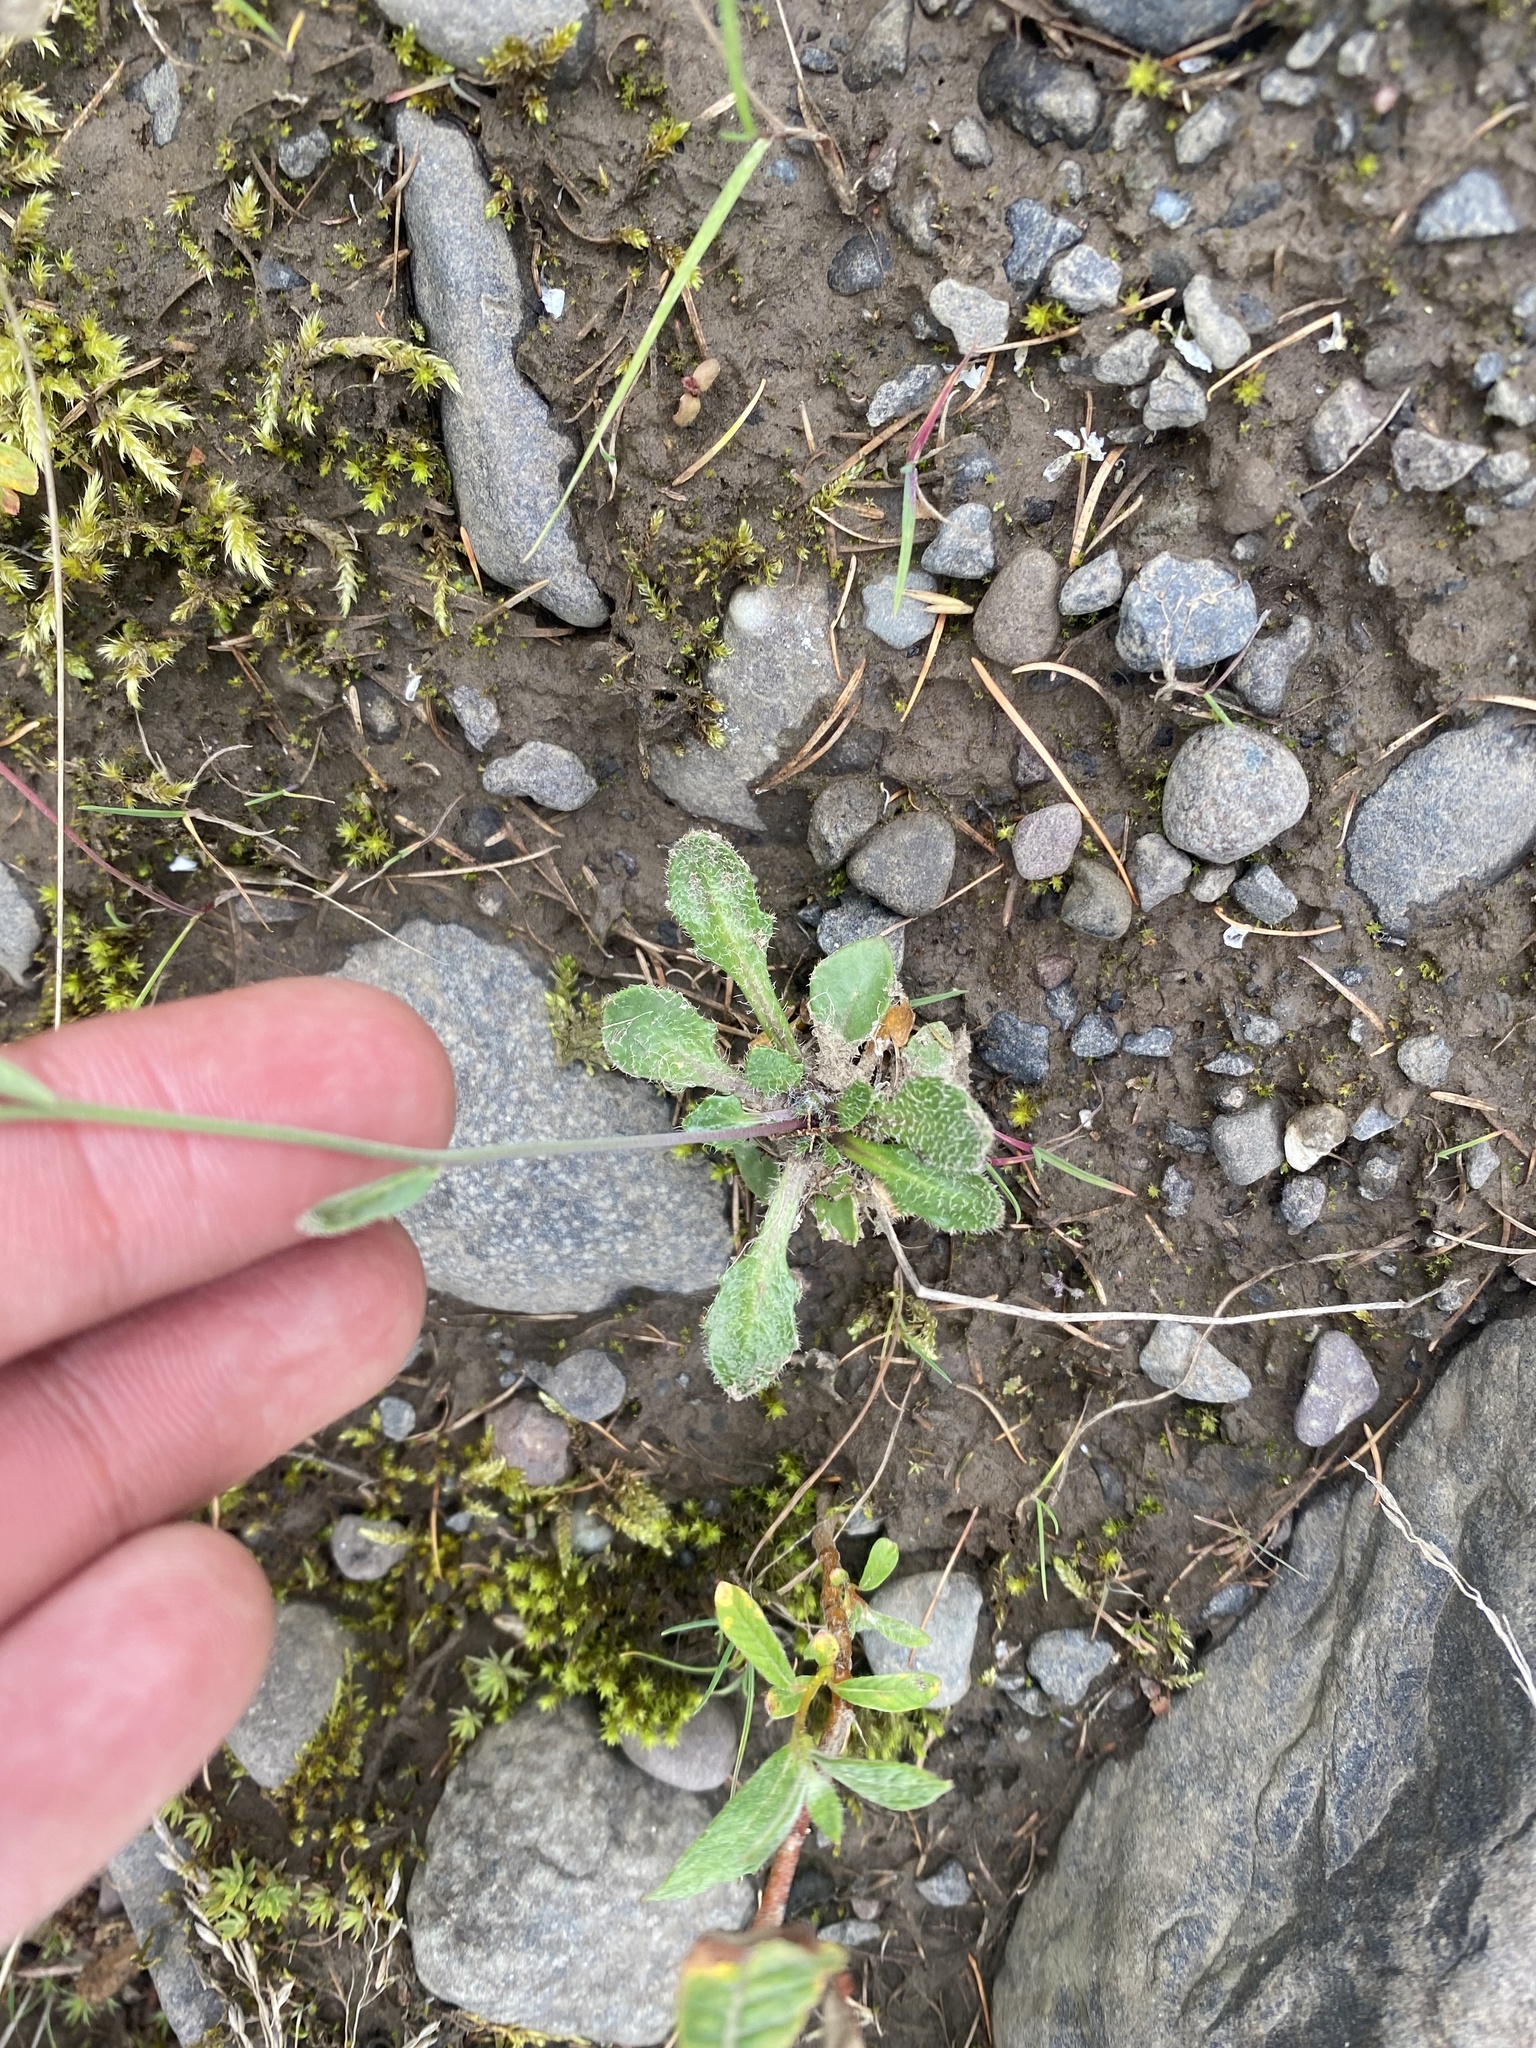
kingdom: Plantae
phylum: Tracheophyta
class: Magnoliopsida
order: Brassicales
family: Brassicaceae
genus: Arabidopsis
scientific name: Arabidopsis lyrata
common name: Lyrate rockcress
